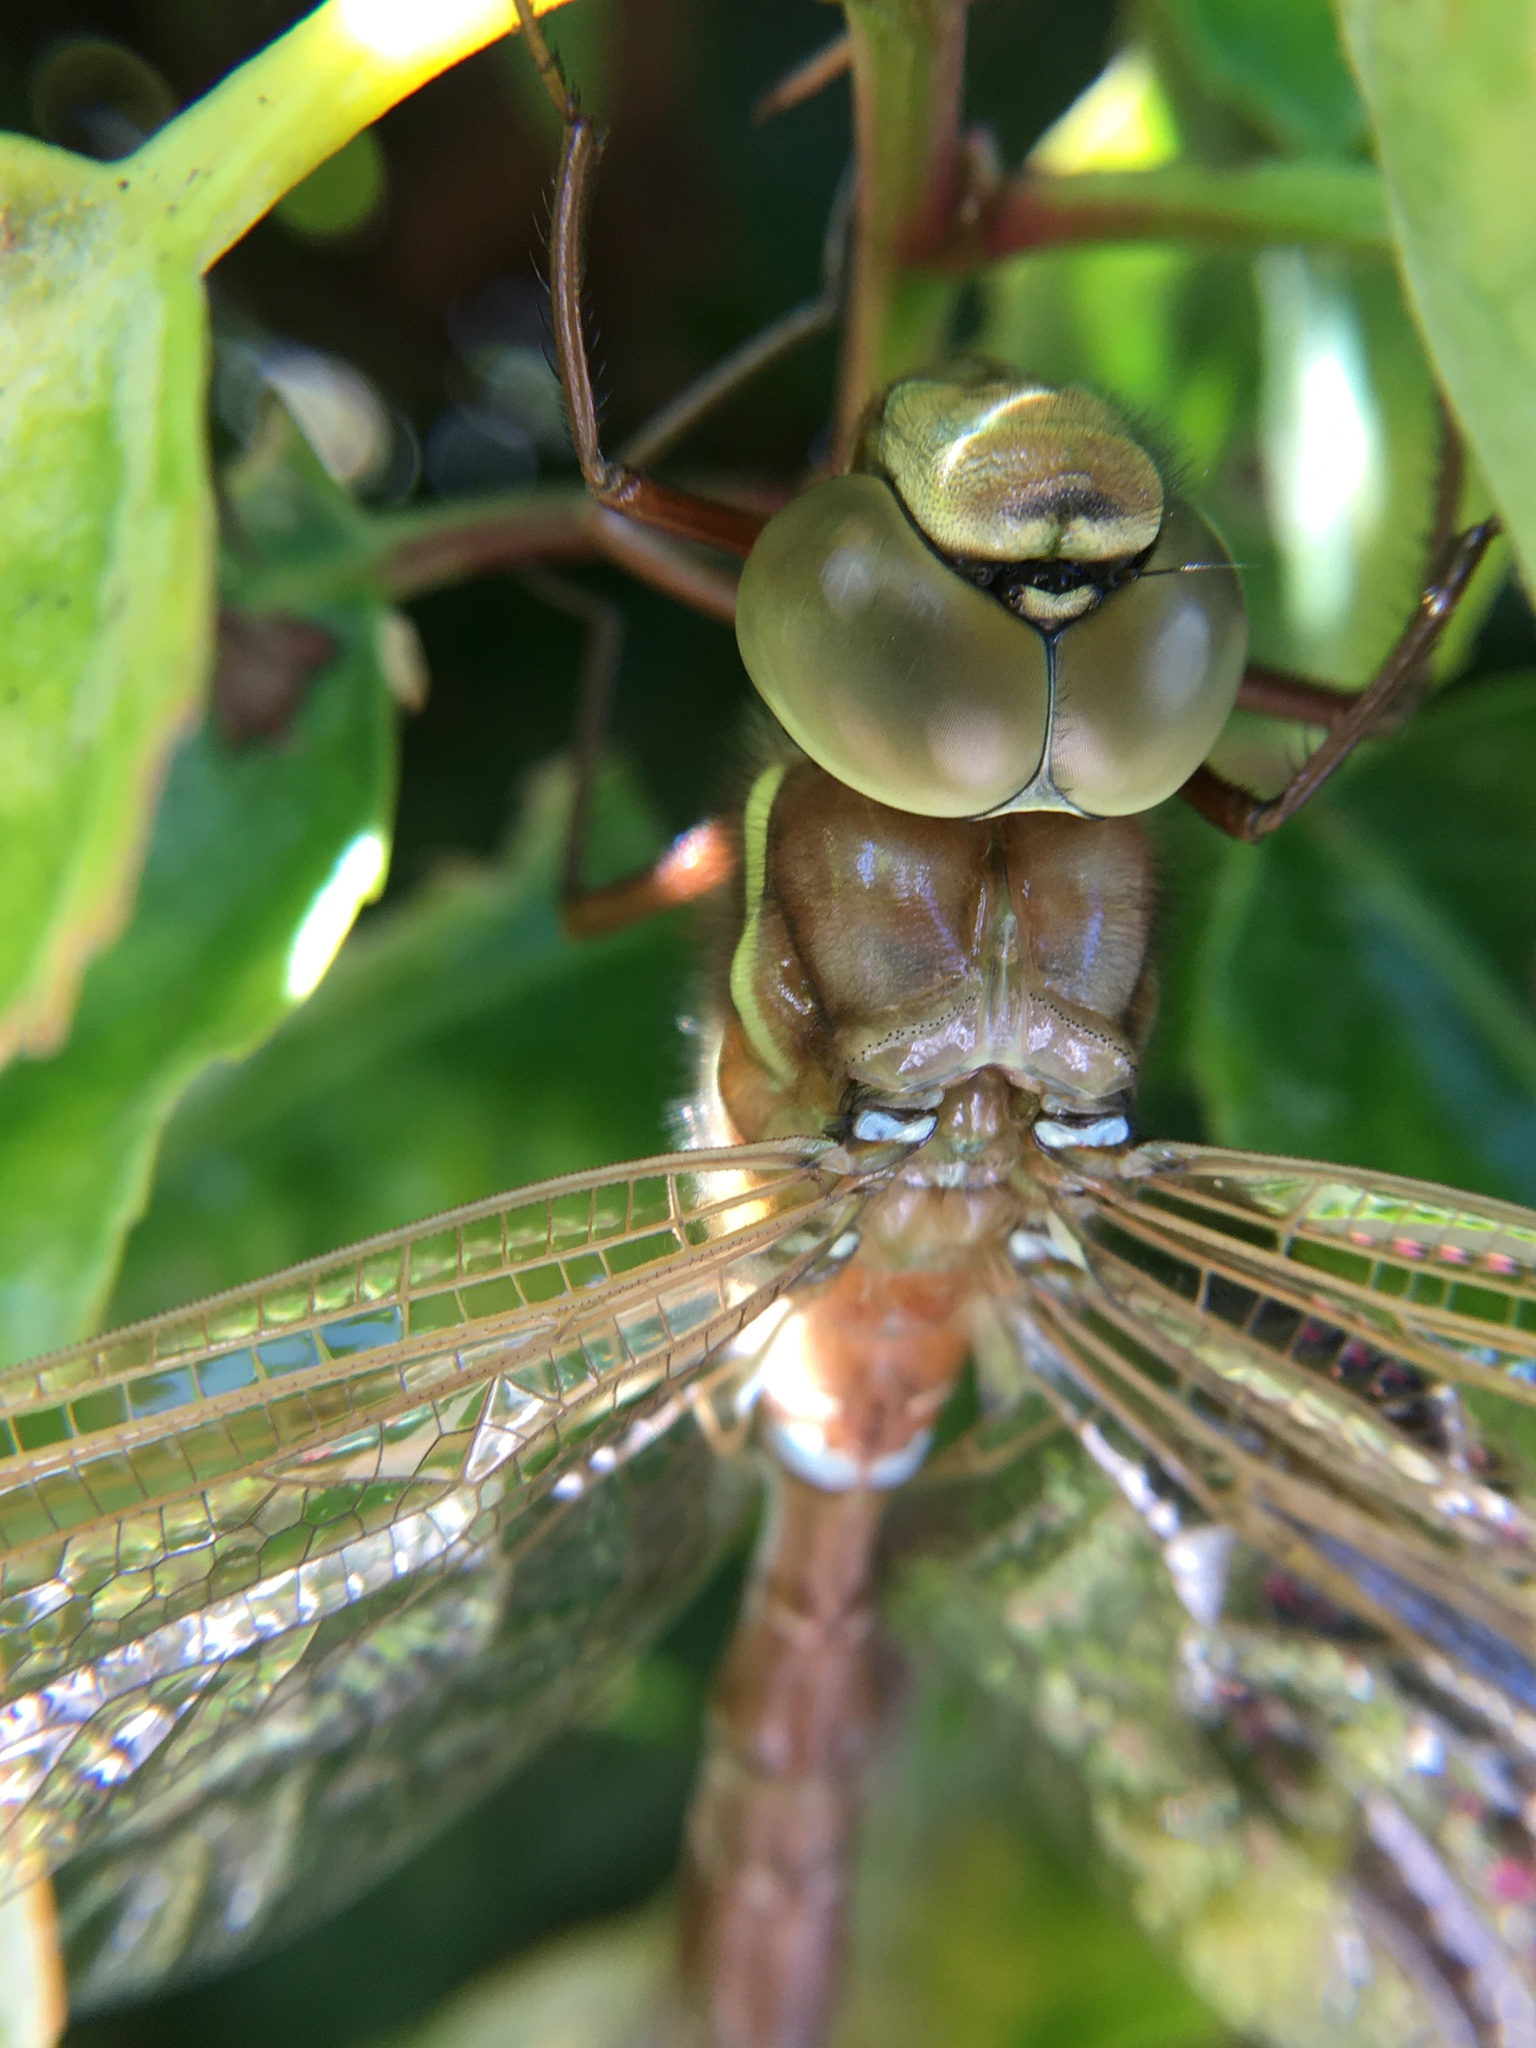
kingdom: Animalia
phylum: Arthropoda
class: Insecta
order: Odonata
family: Aeshnidae
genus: Aeshna
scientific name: Aeshna grandis
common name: Brown hawker
